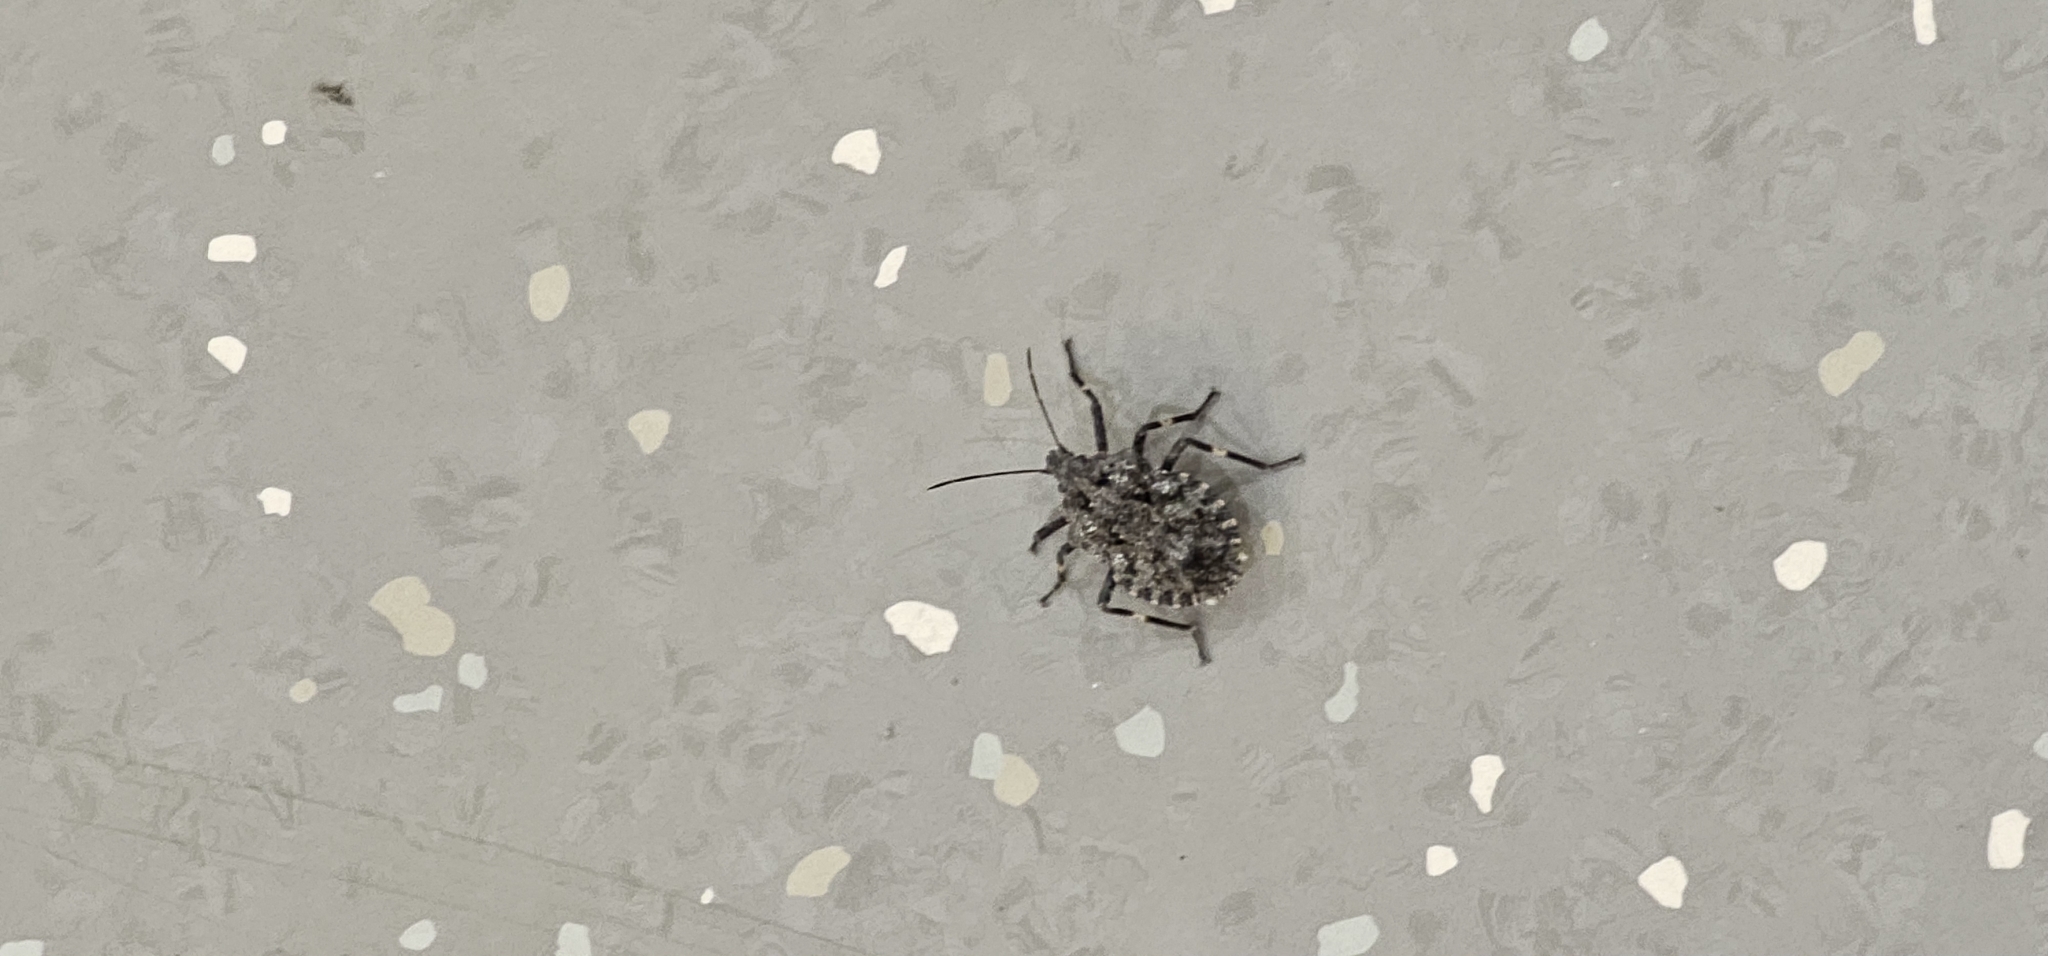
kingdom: Animalia
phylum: Arthropoda
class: Insecta
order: Hemiptera
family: Pentatomidae
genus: Brochymena
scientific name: Brochymena affinis
